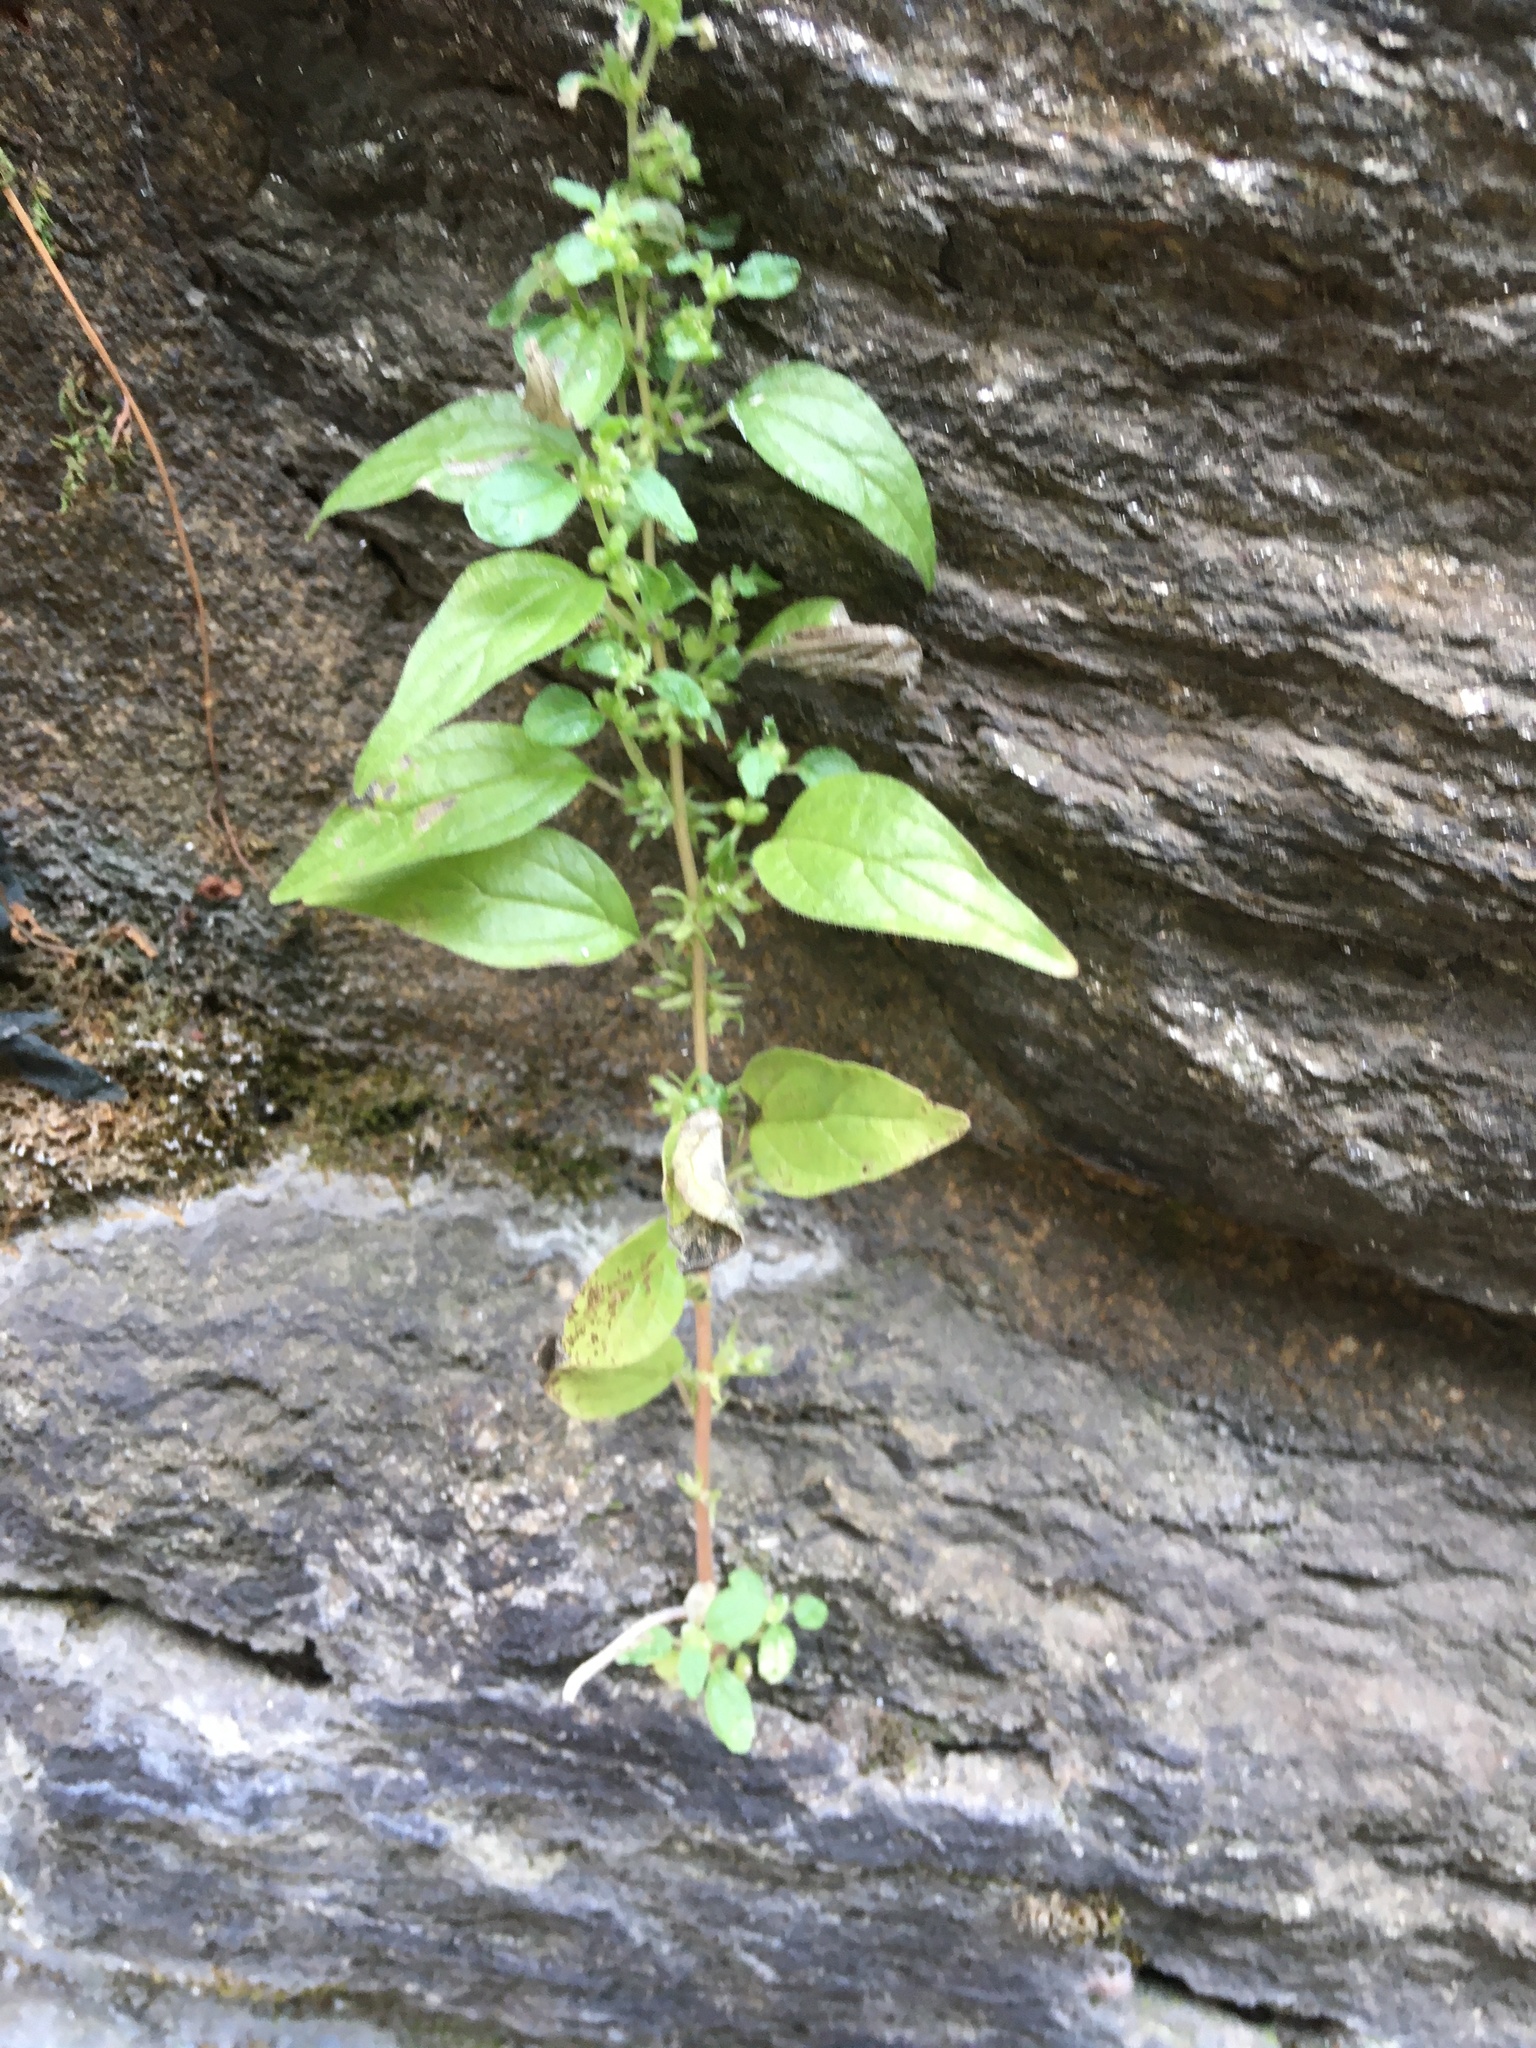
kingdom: Plantae
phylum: Tracheophyta
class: Magnoliopsida
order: Rosales
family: Urticaceae
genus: Parietaria
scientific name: Parietaria pensylvanica
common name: Pennsylvania pellitory
